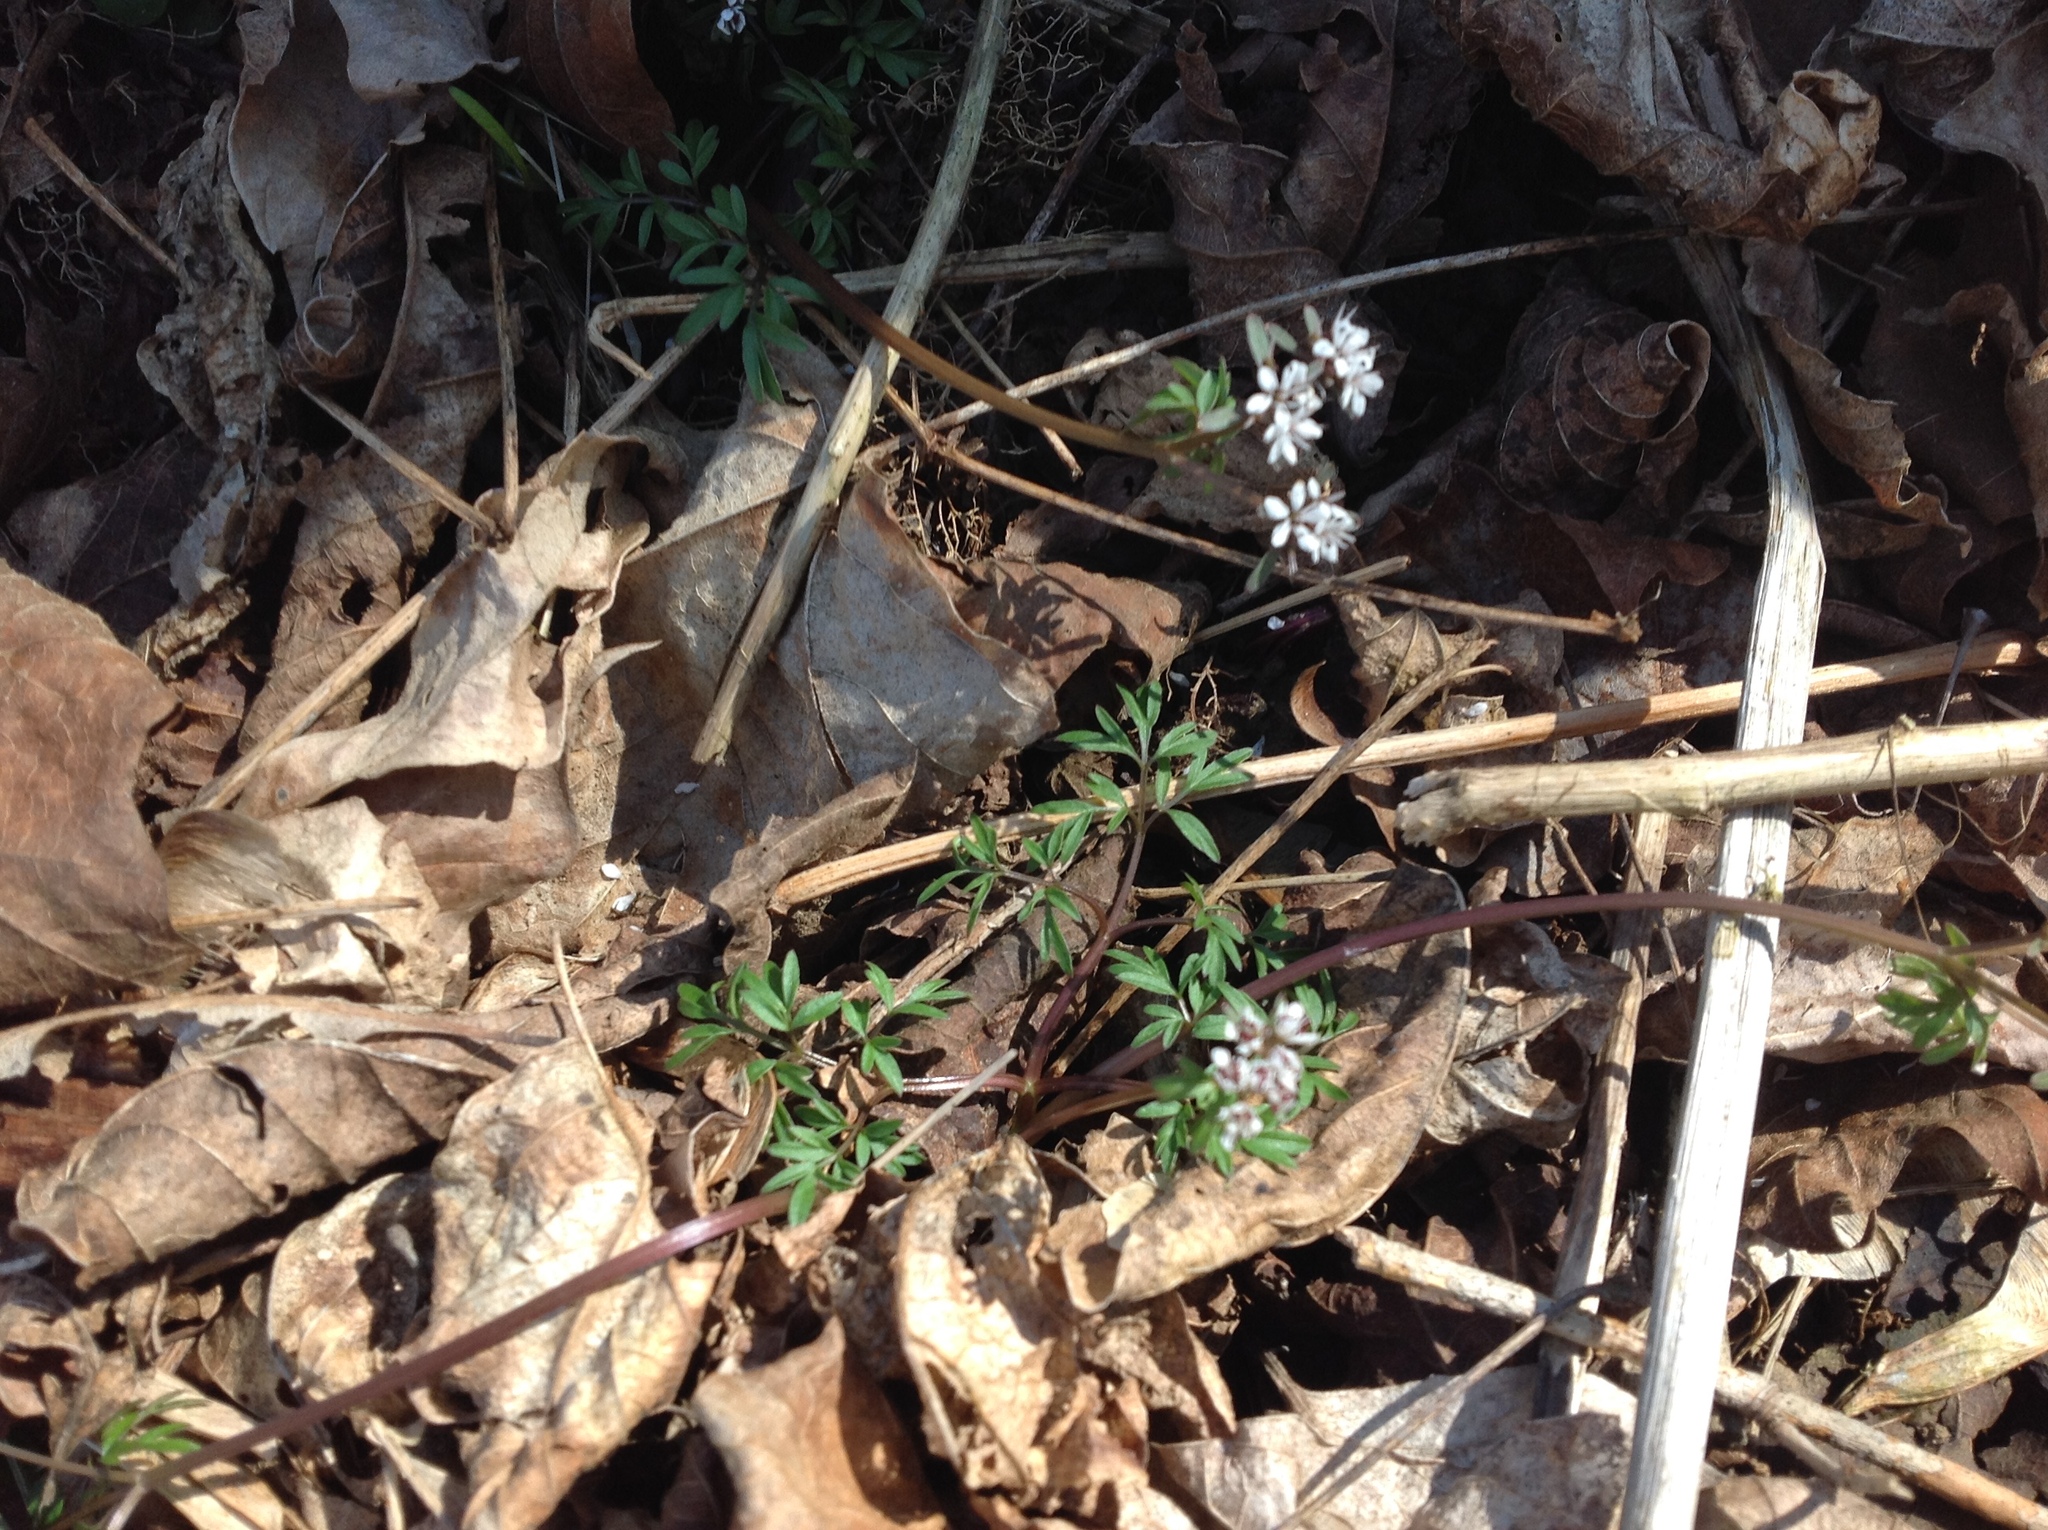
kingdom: Plantae
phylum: Tracheophyta
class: Magnoliopsida
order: Apiales
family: Apiaceae
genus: Erigenia
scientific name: Erigenia bulbosa
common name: Pepper-and-salt
